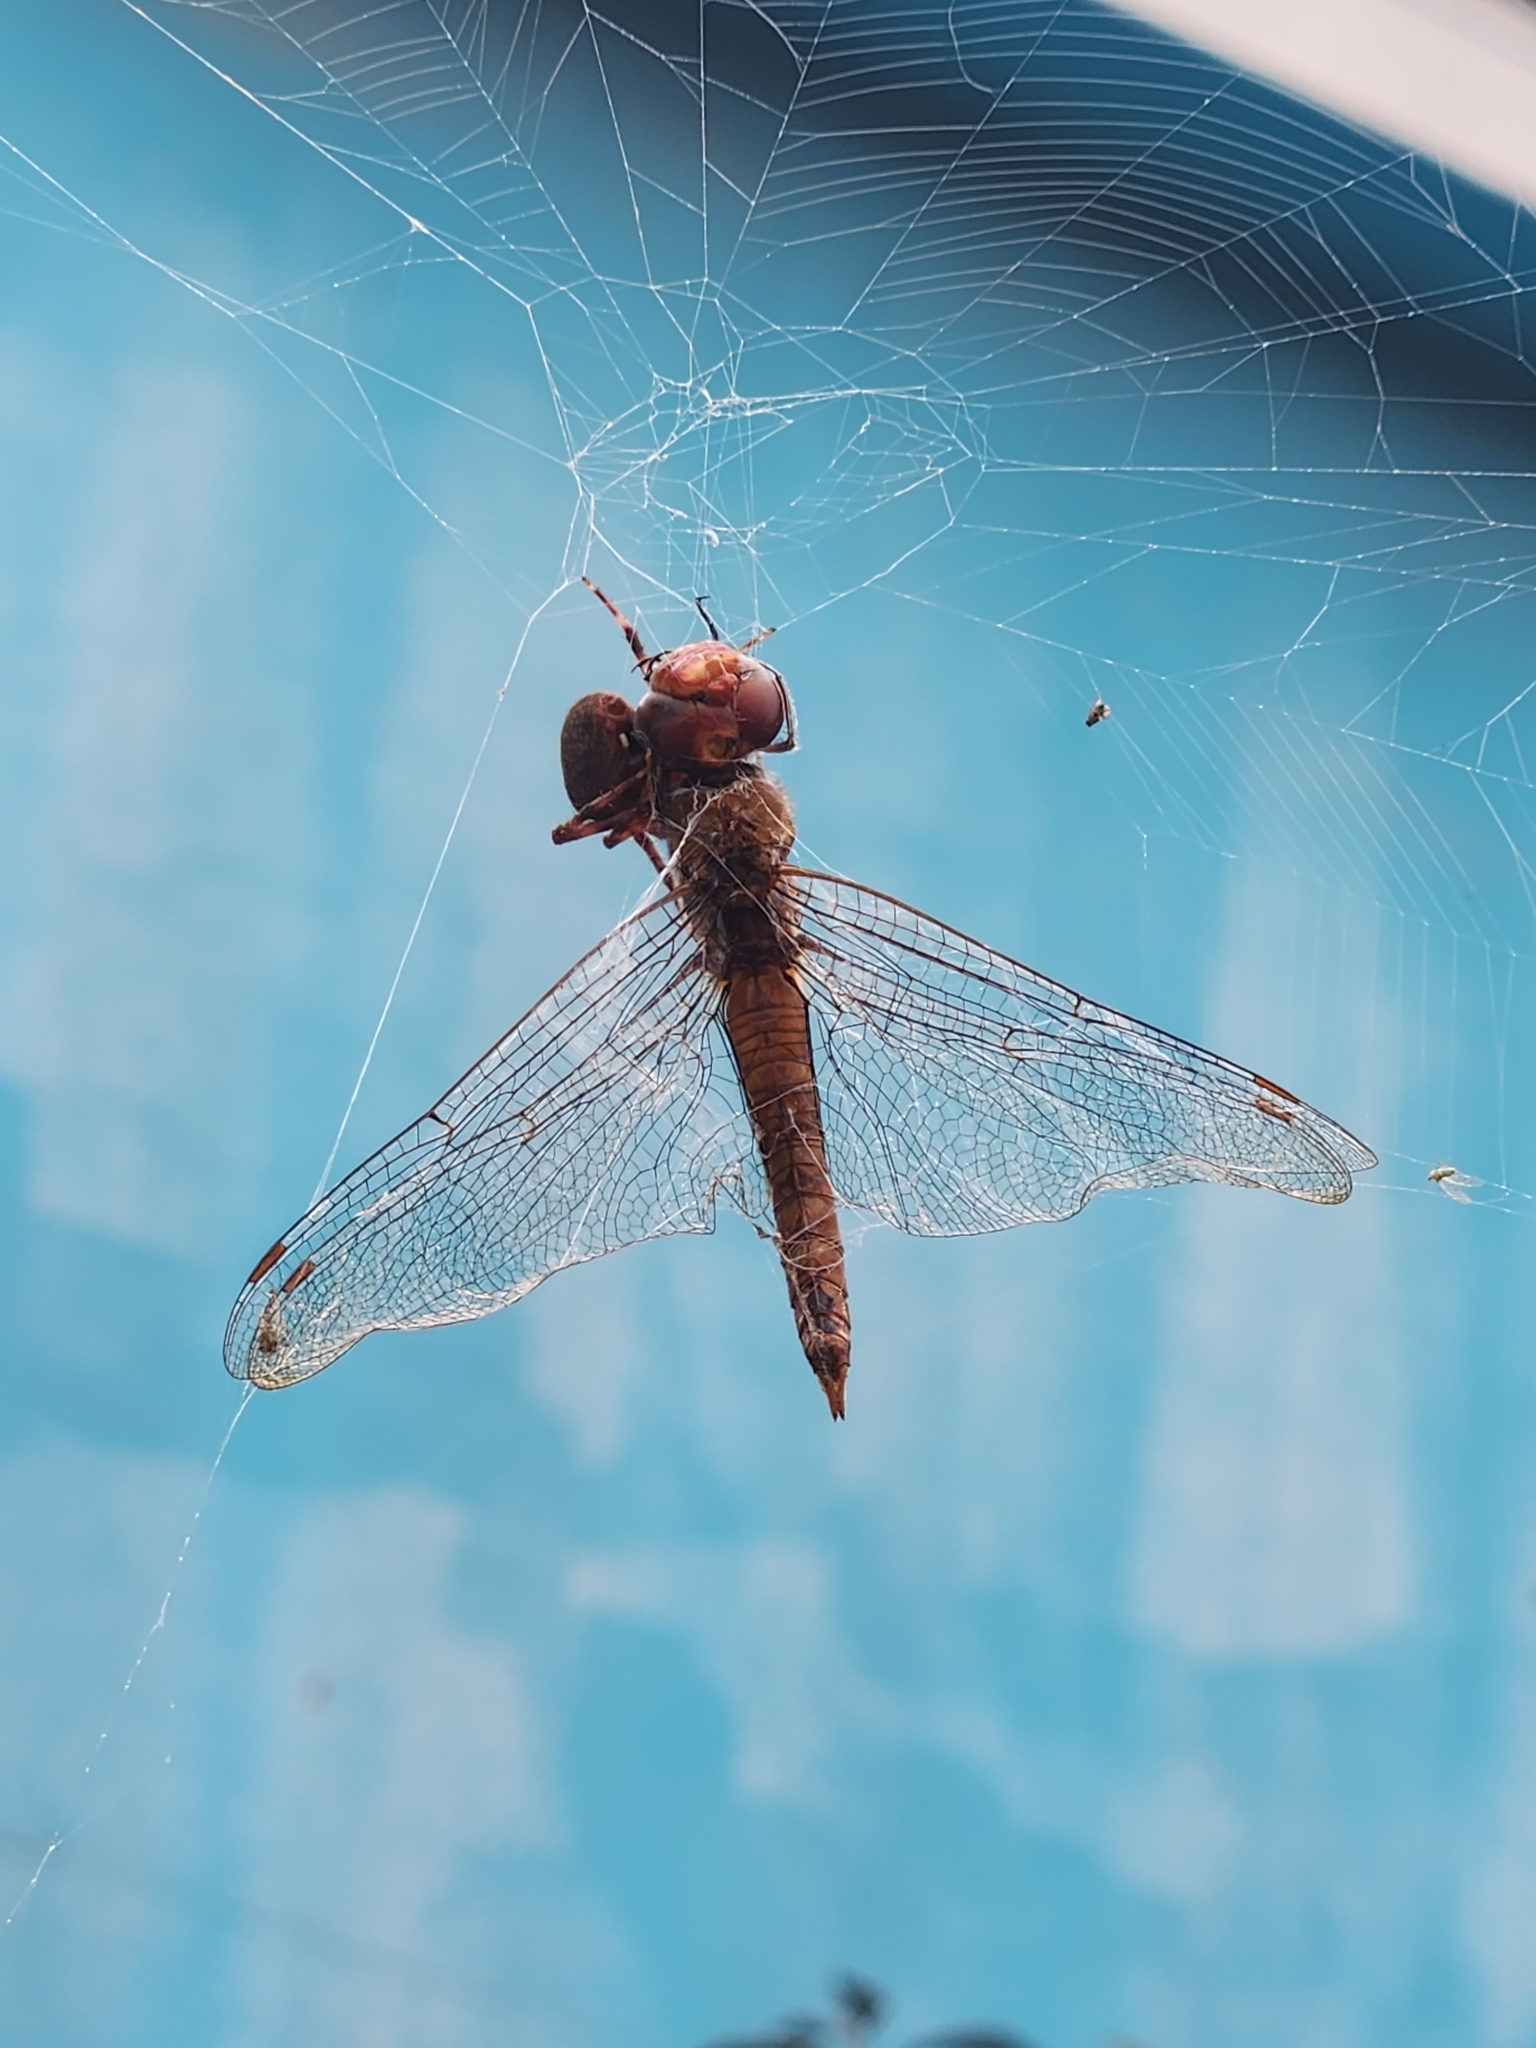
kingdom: Animalia
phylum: Arthropoda
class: Insecta
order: Odonata
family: Libellulidae
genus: Pantala
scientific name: Pantala flavescens
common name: Wandering glider
